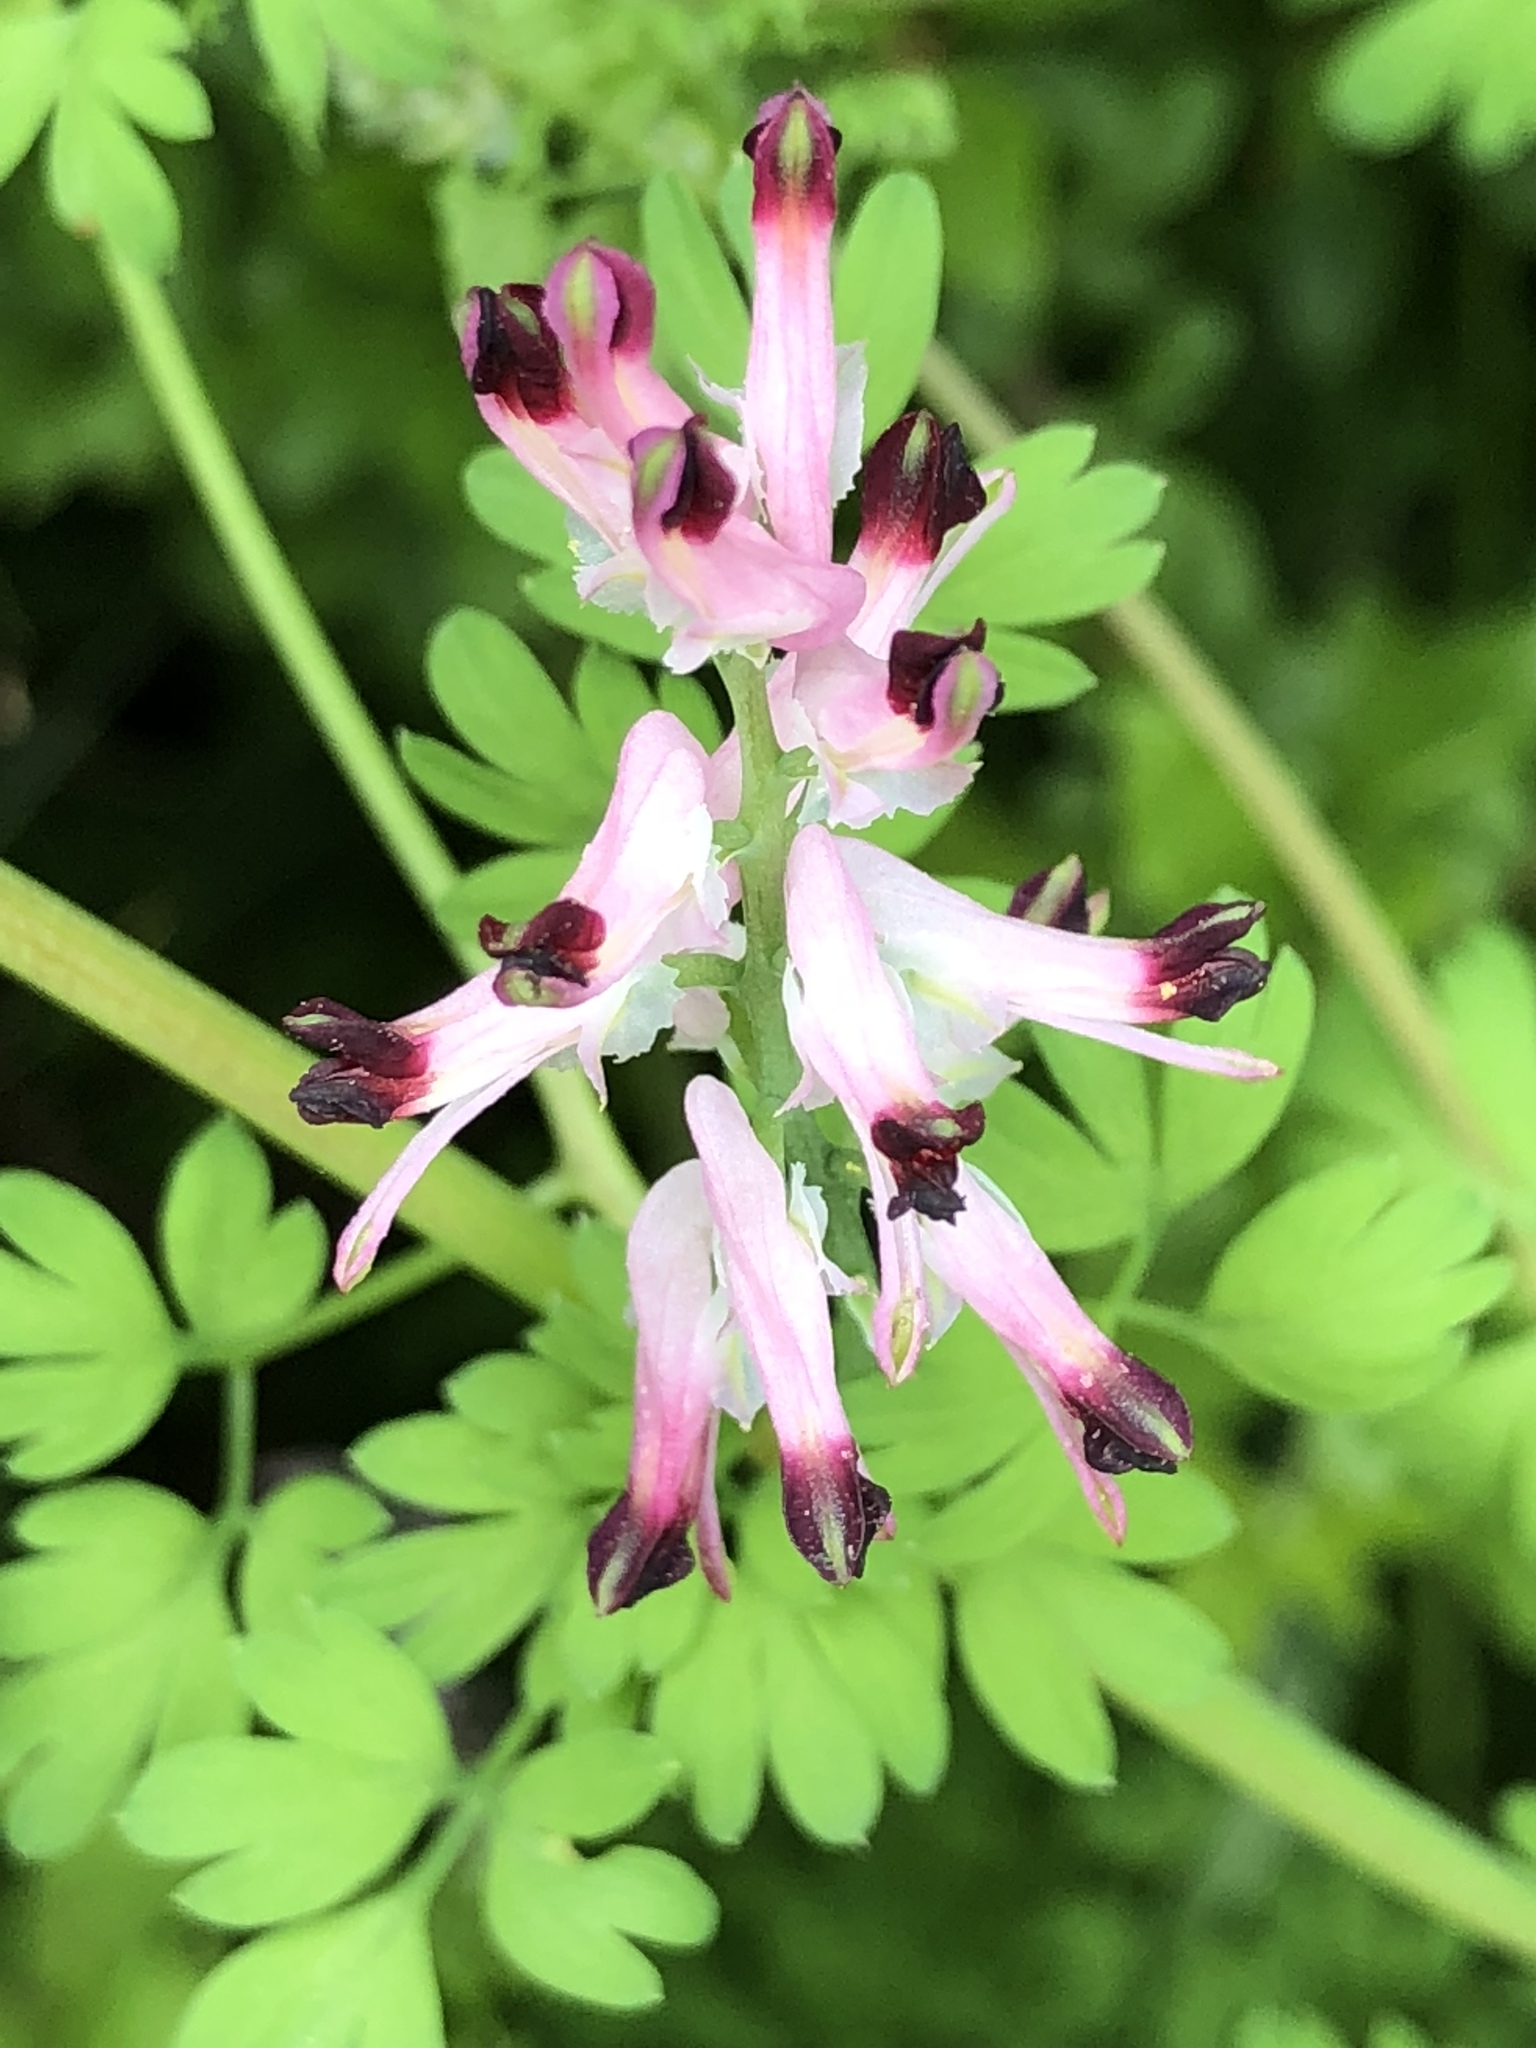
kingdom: Plantae
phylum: Tracheophyta
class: Magnoliopsida
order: Ranunculales
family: Papaveraceae
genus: Fumaria
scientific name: Fumaria muralis
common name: Common ramping-fumitory
